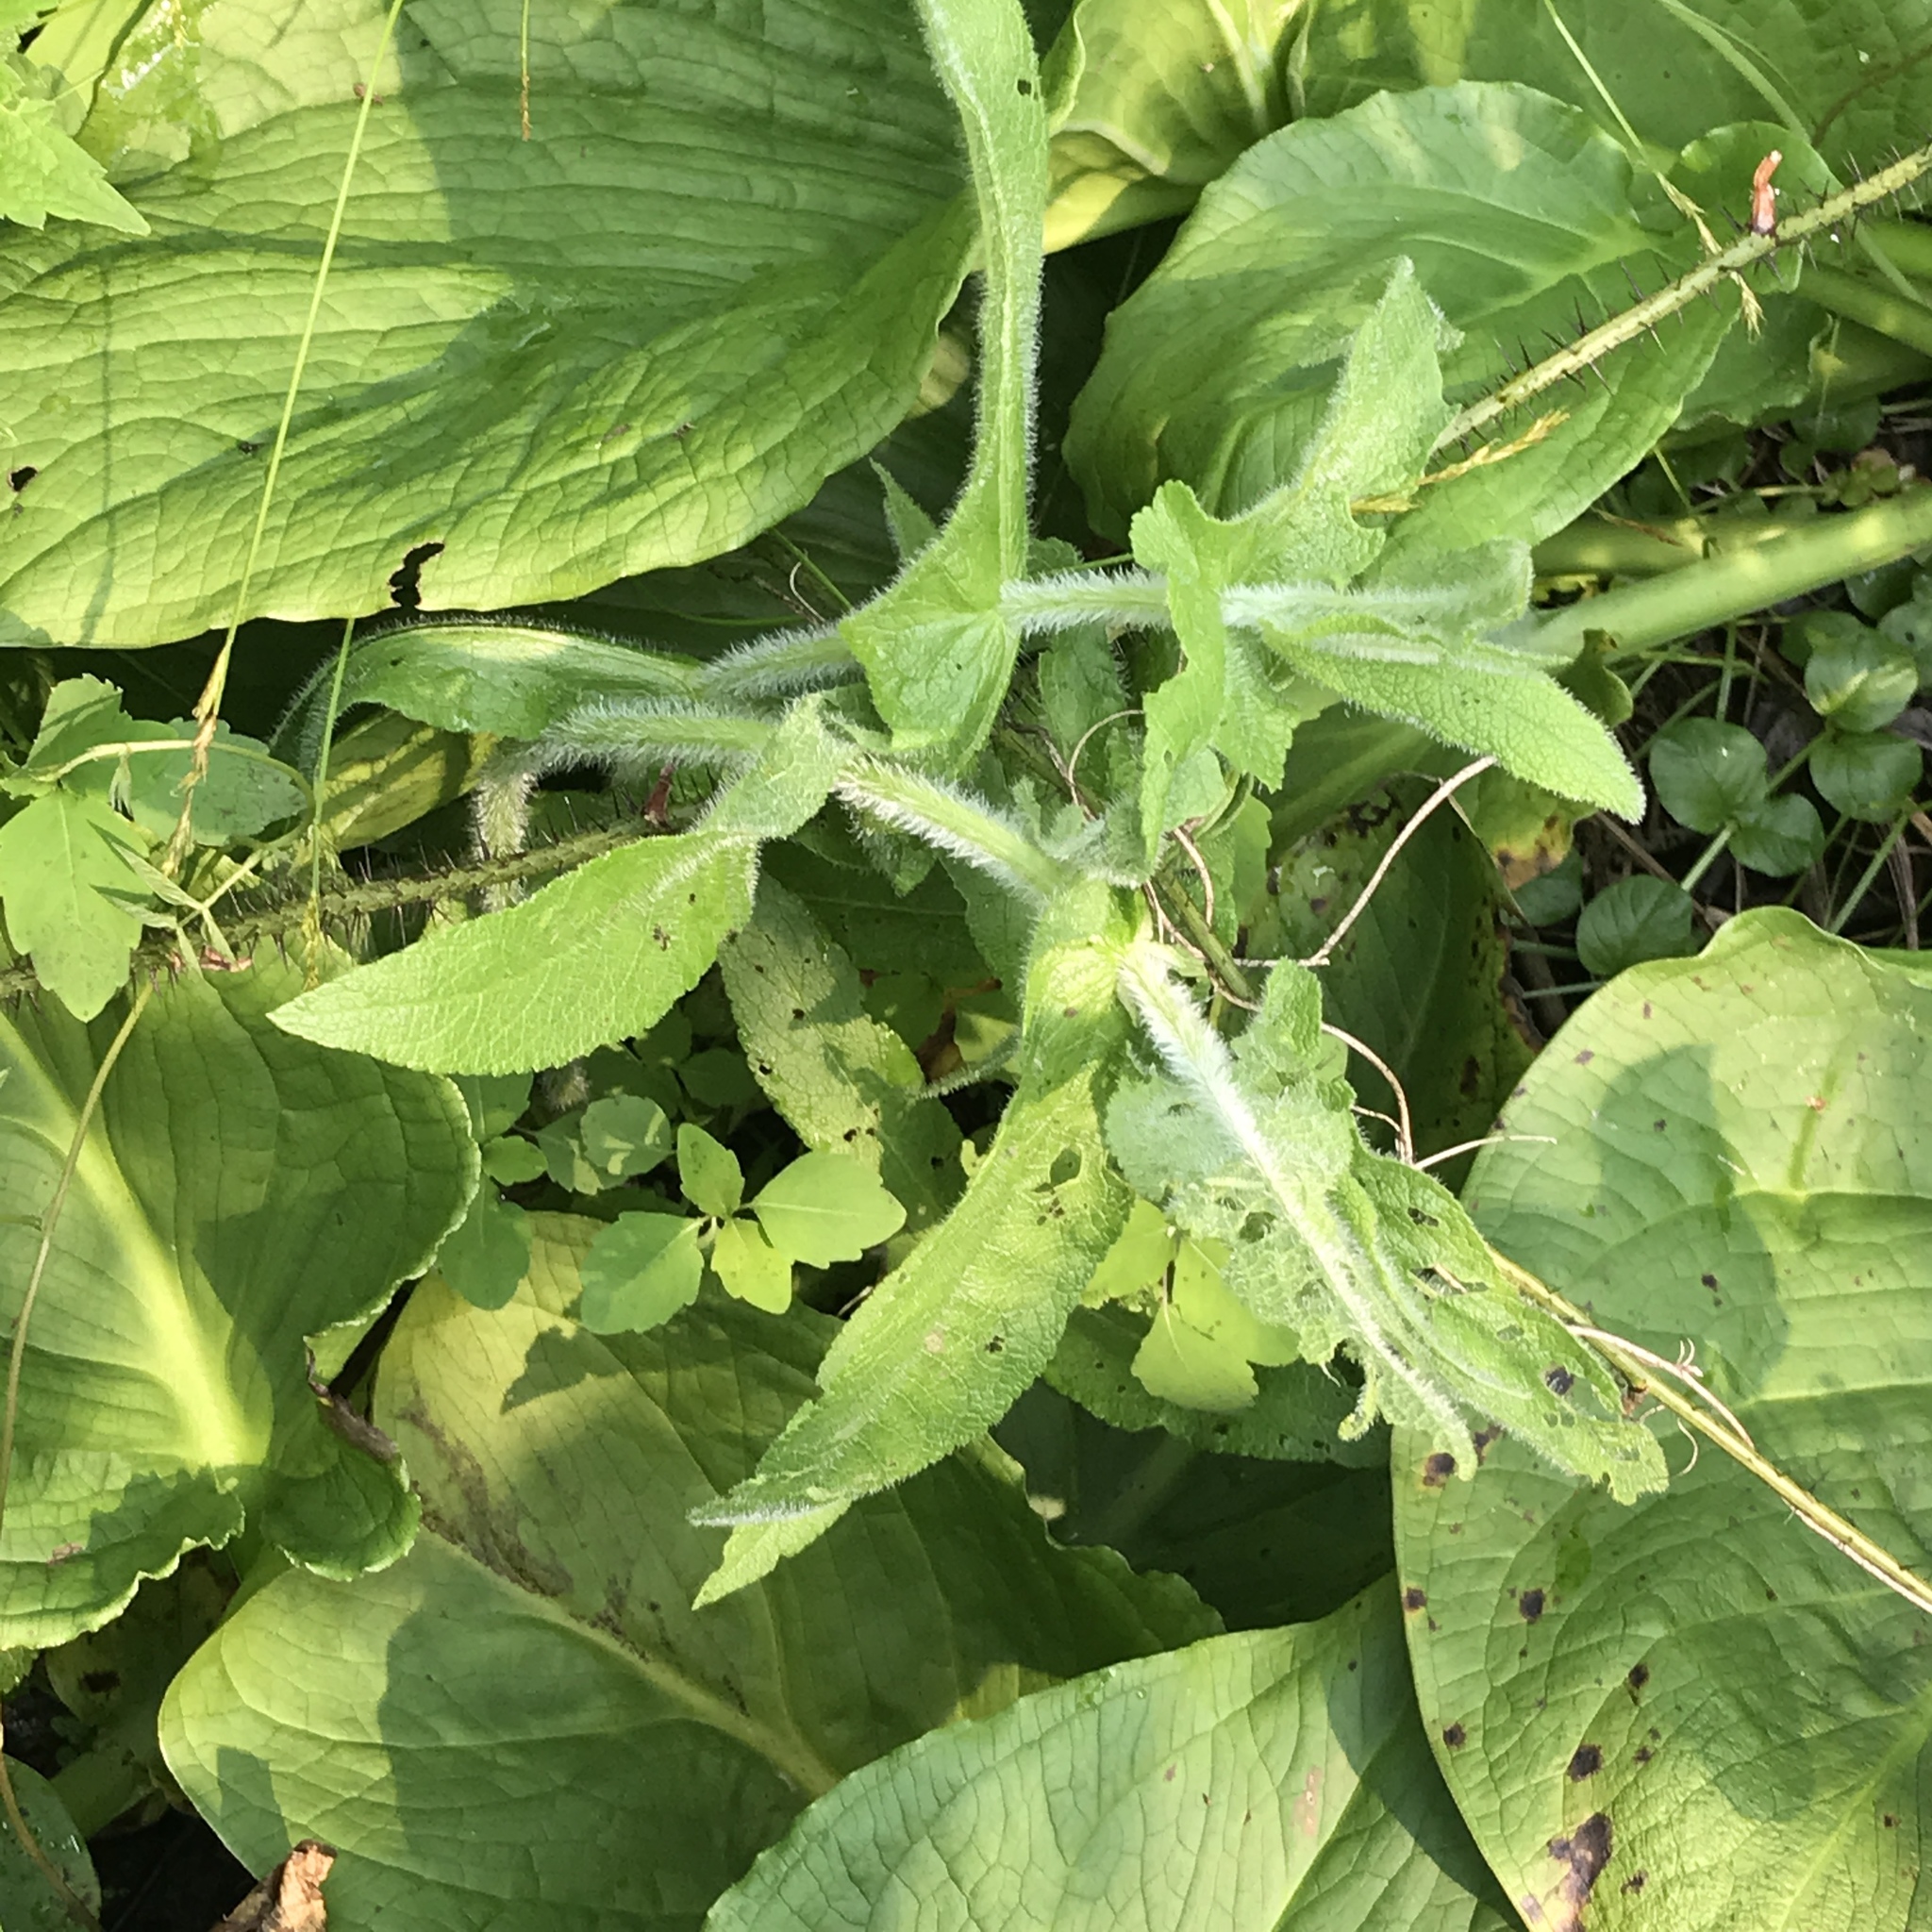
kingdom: Plantae
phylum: Tracheophyta
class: Magnoliopsida
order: Asterales
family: Asteraceae
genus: Eupatorium
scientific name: Eupatorium perfoliatum
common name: Boneset
